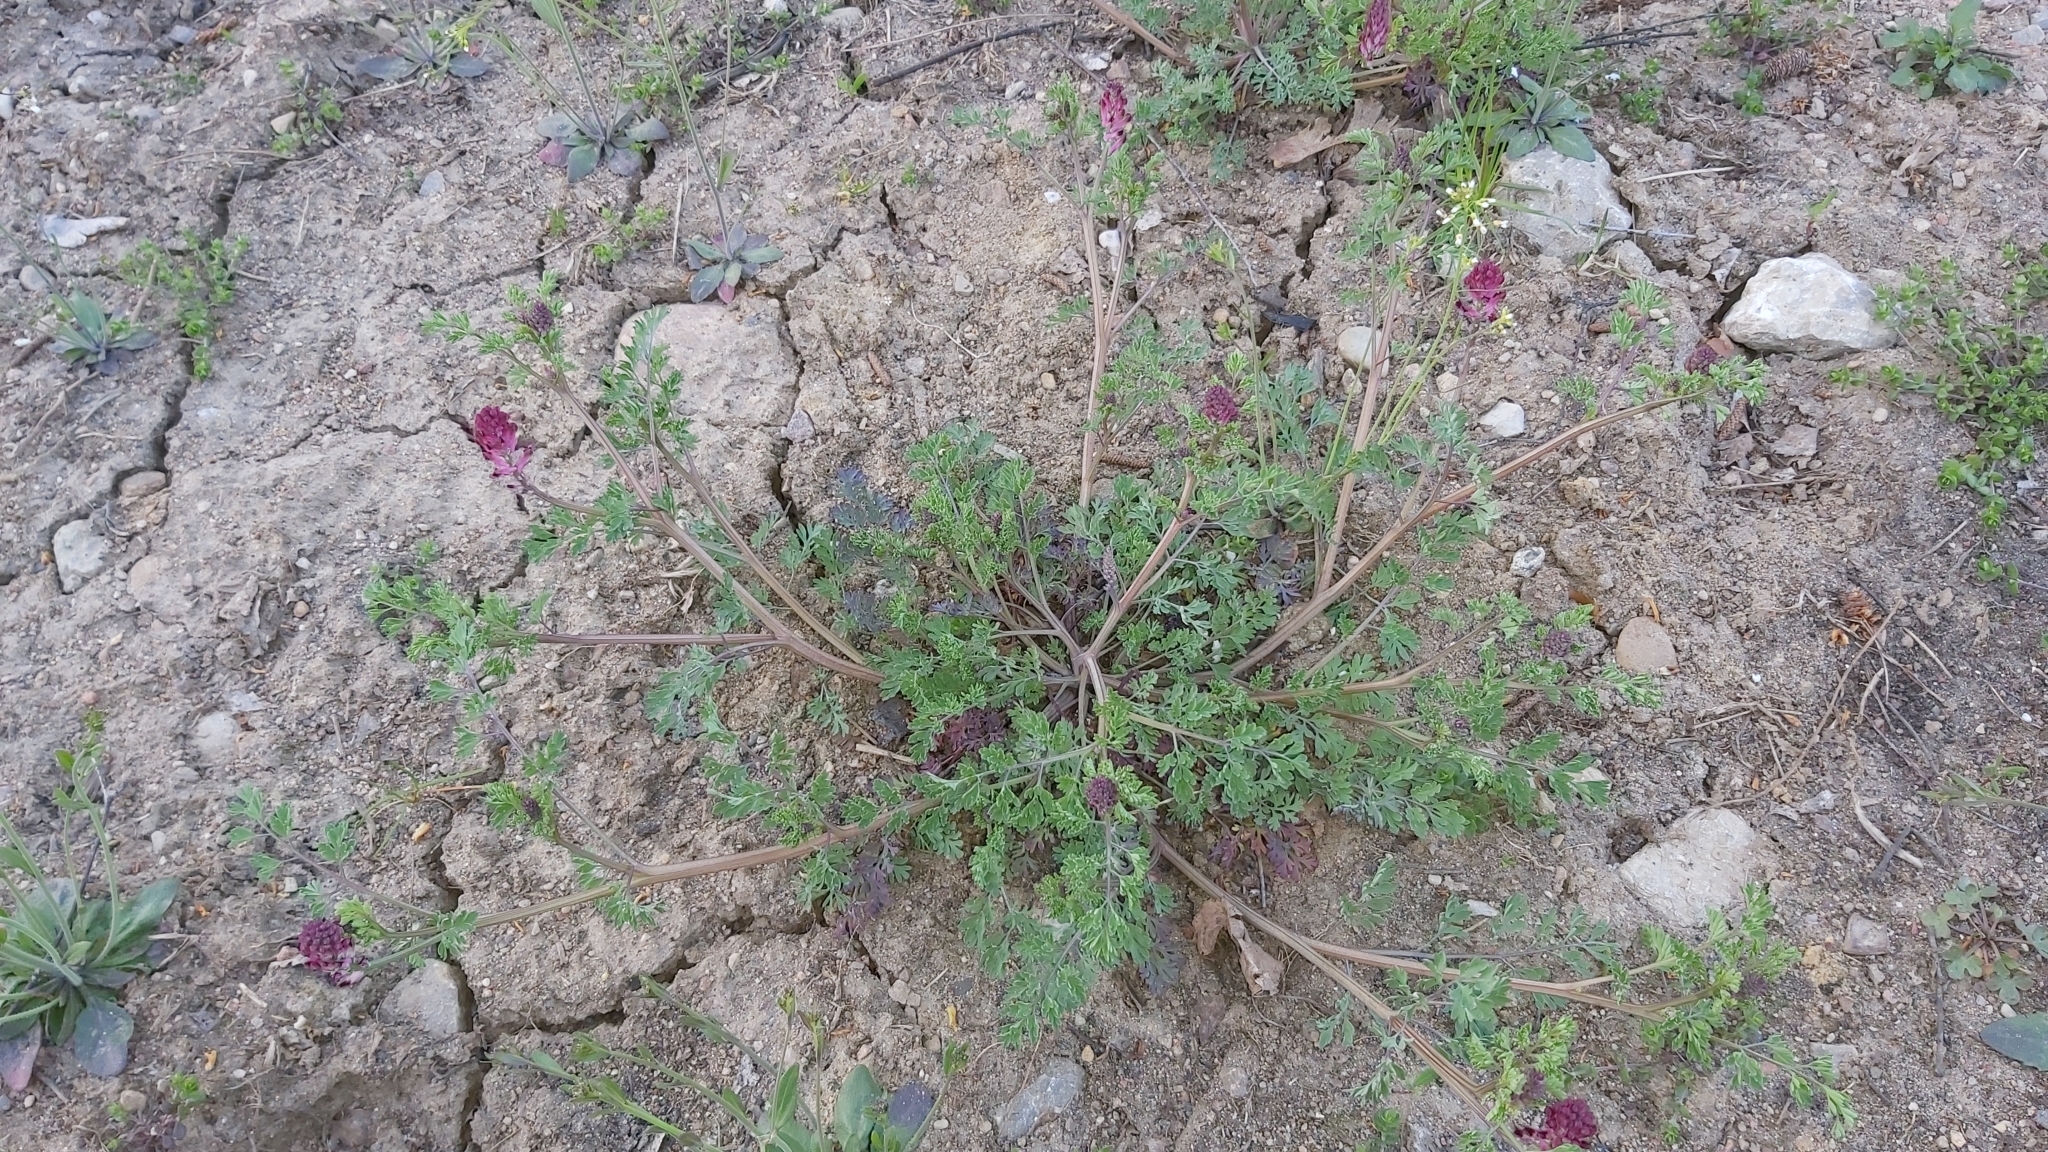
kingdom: Plantae
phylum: Tracheophyta
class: Magnoliopsida
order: Ranunculales
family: Papaveraceae
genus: Fumaria
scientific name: Fumaria officinalis
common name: Common fumitory
